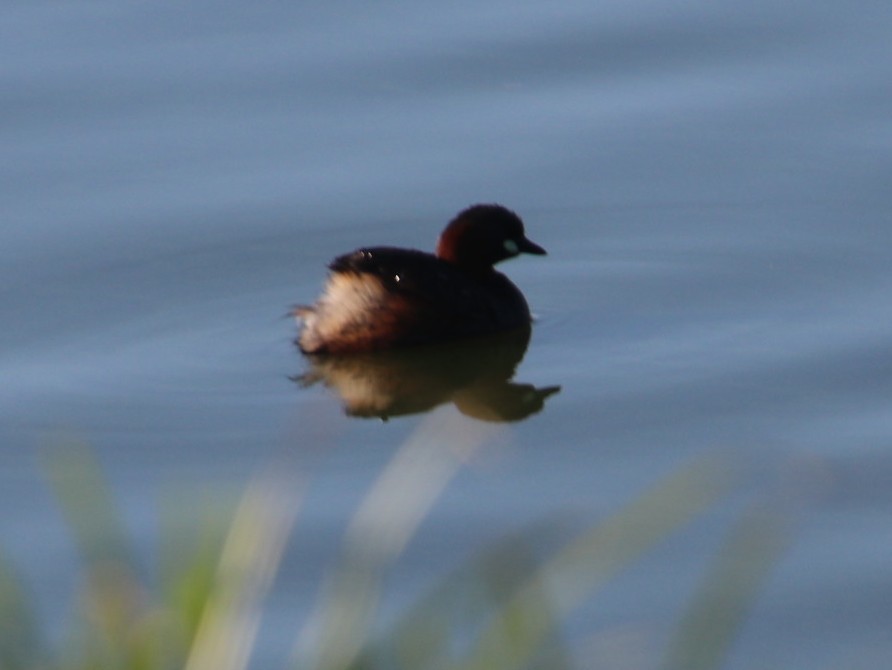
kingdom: Animalia
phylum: Chordata
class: Aves
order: Podicipediformes
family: Podicipedidae
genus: Tachybaptus
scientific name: Tachybaptus ruficollis
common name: Little grebe
